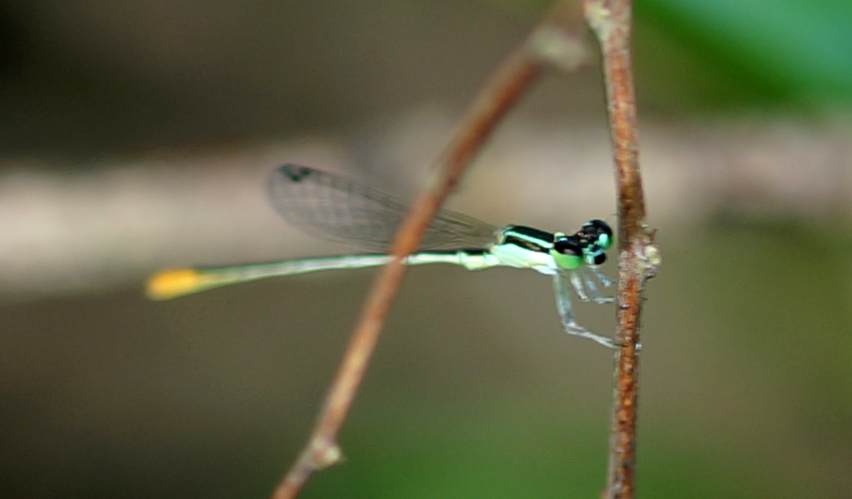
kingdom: Animalia
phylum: Arthropoda
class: Insecta
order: Odonata
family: Coenagrionidae
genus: Agriocnemis
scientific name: Agriocnemis pygmaea
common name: Pygmy wisp
